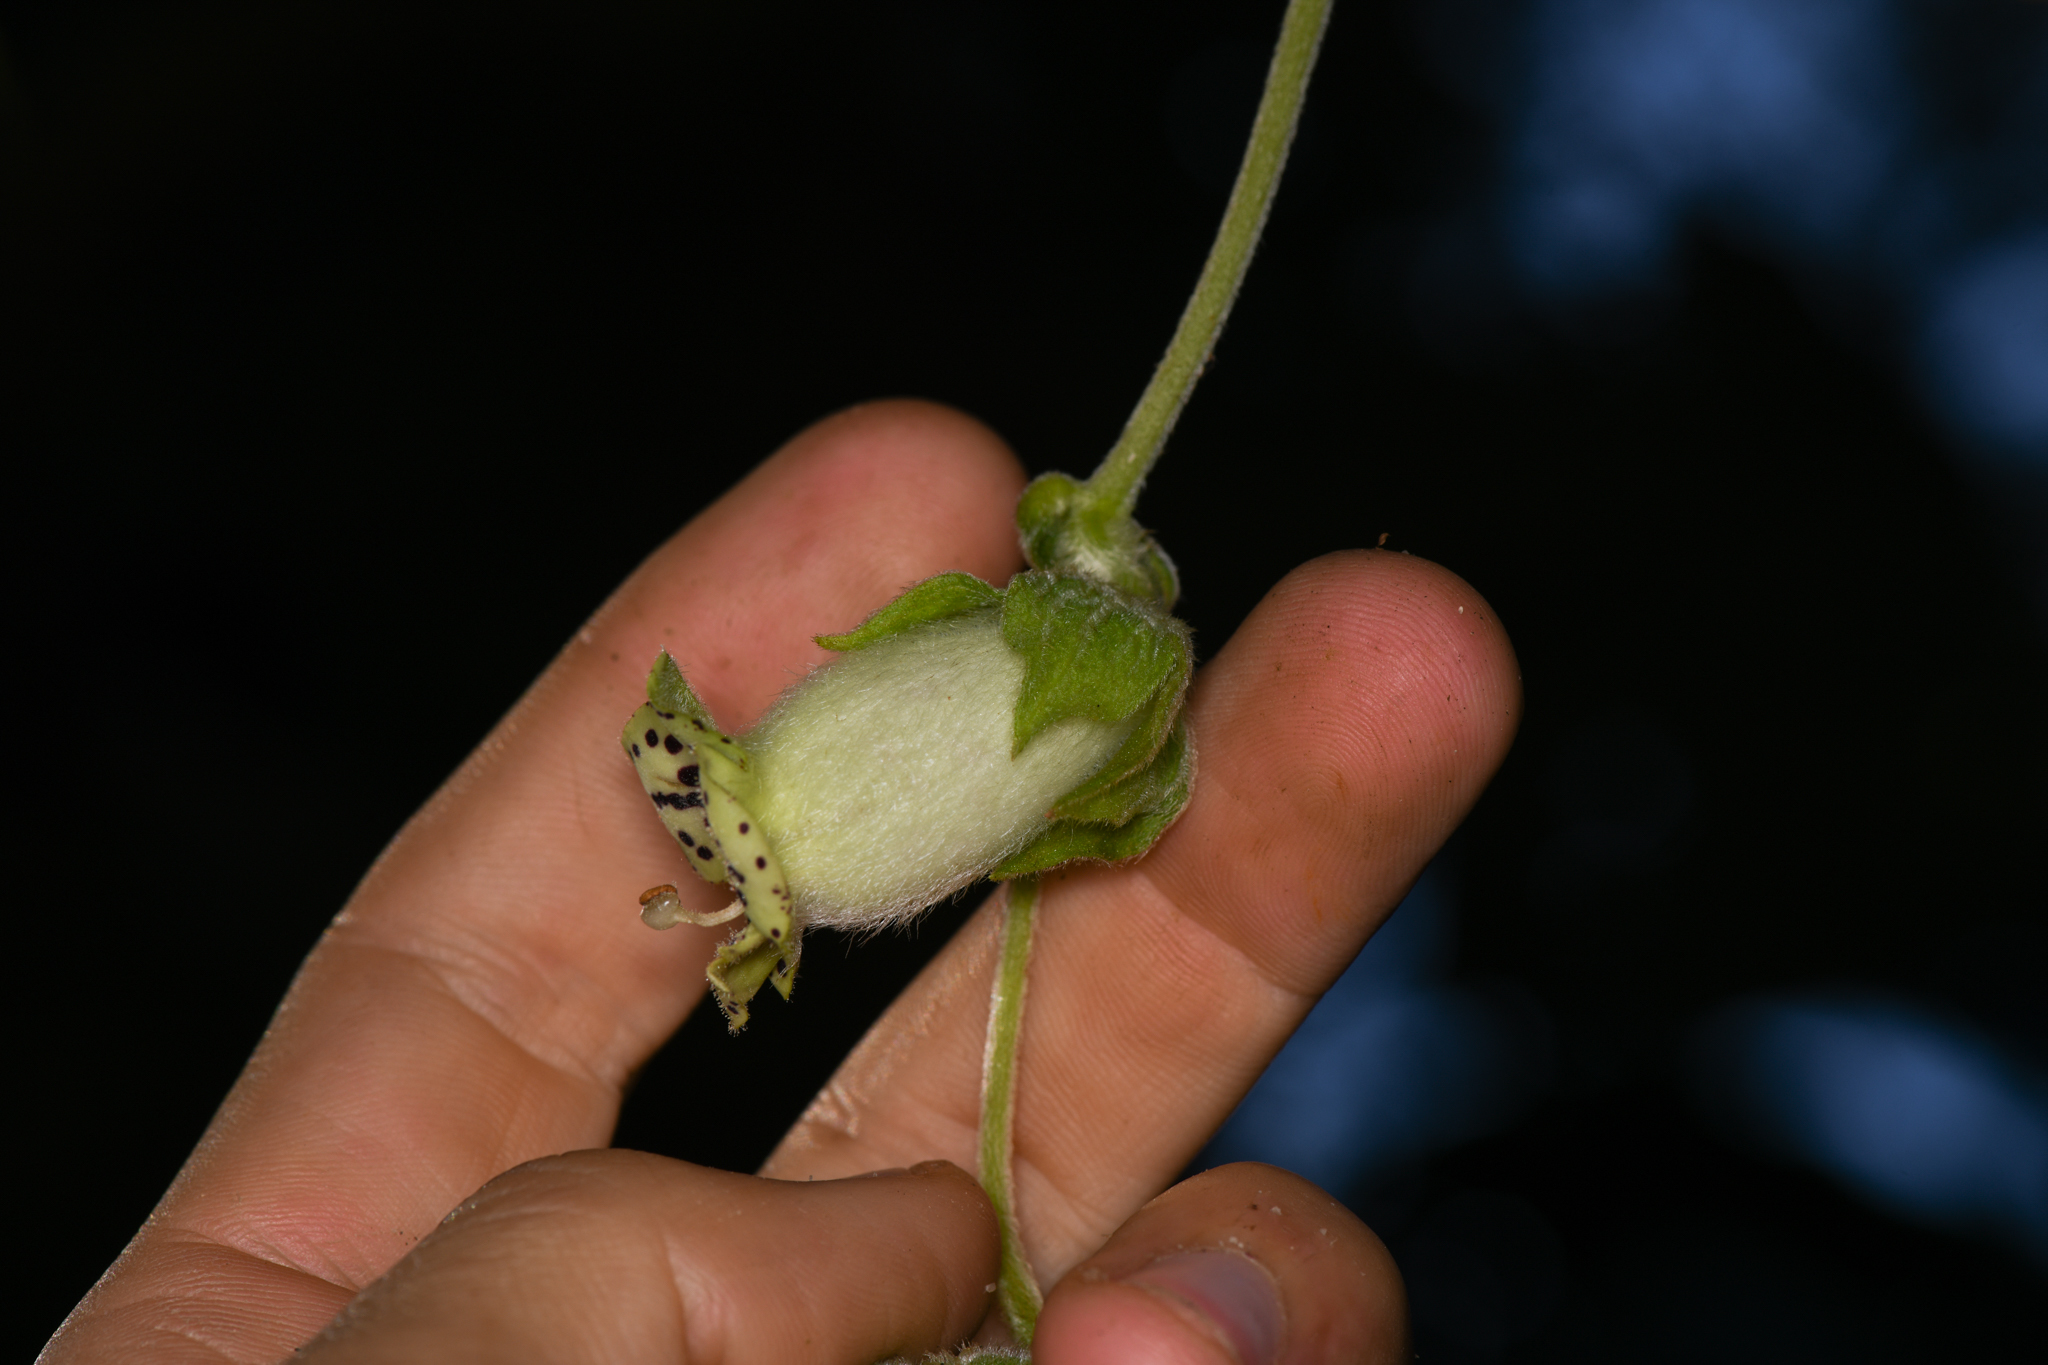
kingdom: Plantae
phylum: Tracheophyta
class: Magnoliopsida
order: Lamiales
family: Gesneriaceae
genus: Kohleria
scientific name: Kohleria tigridia
